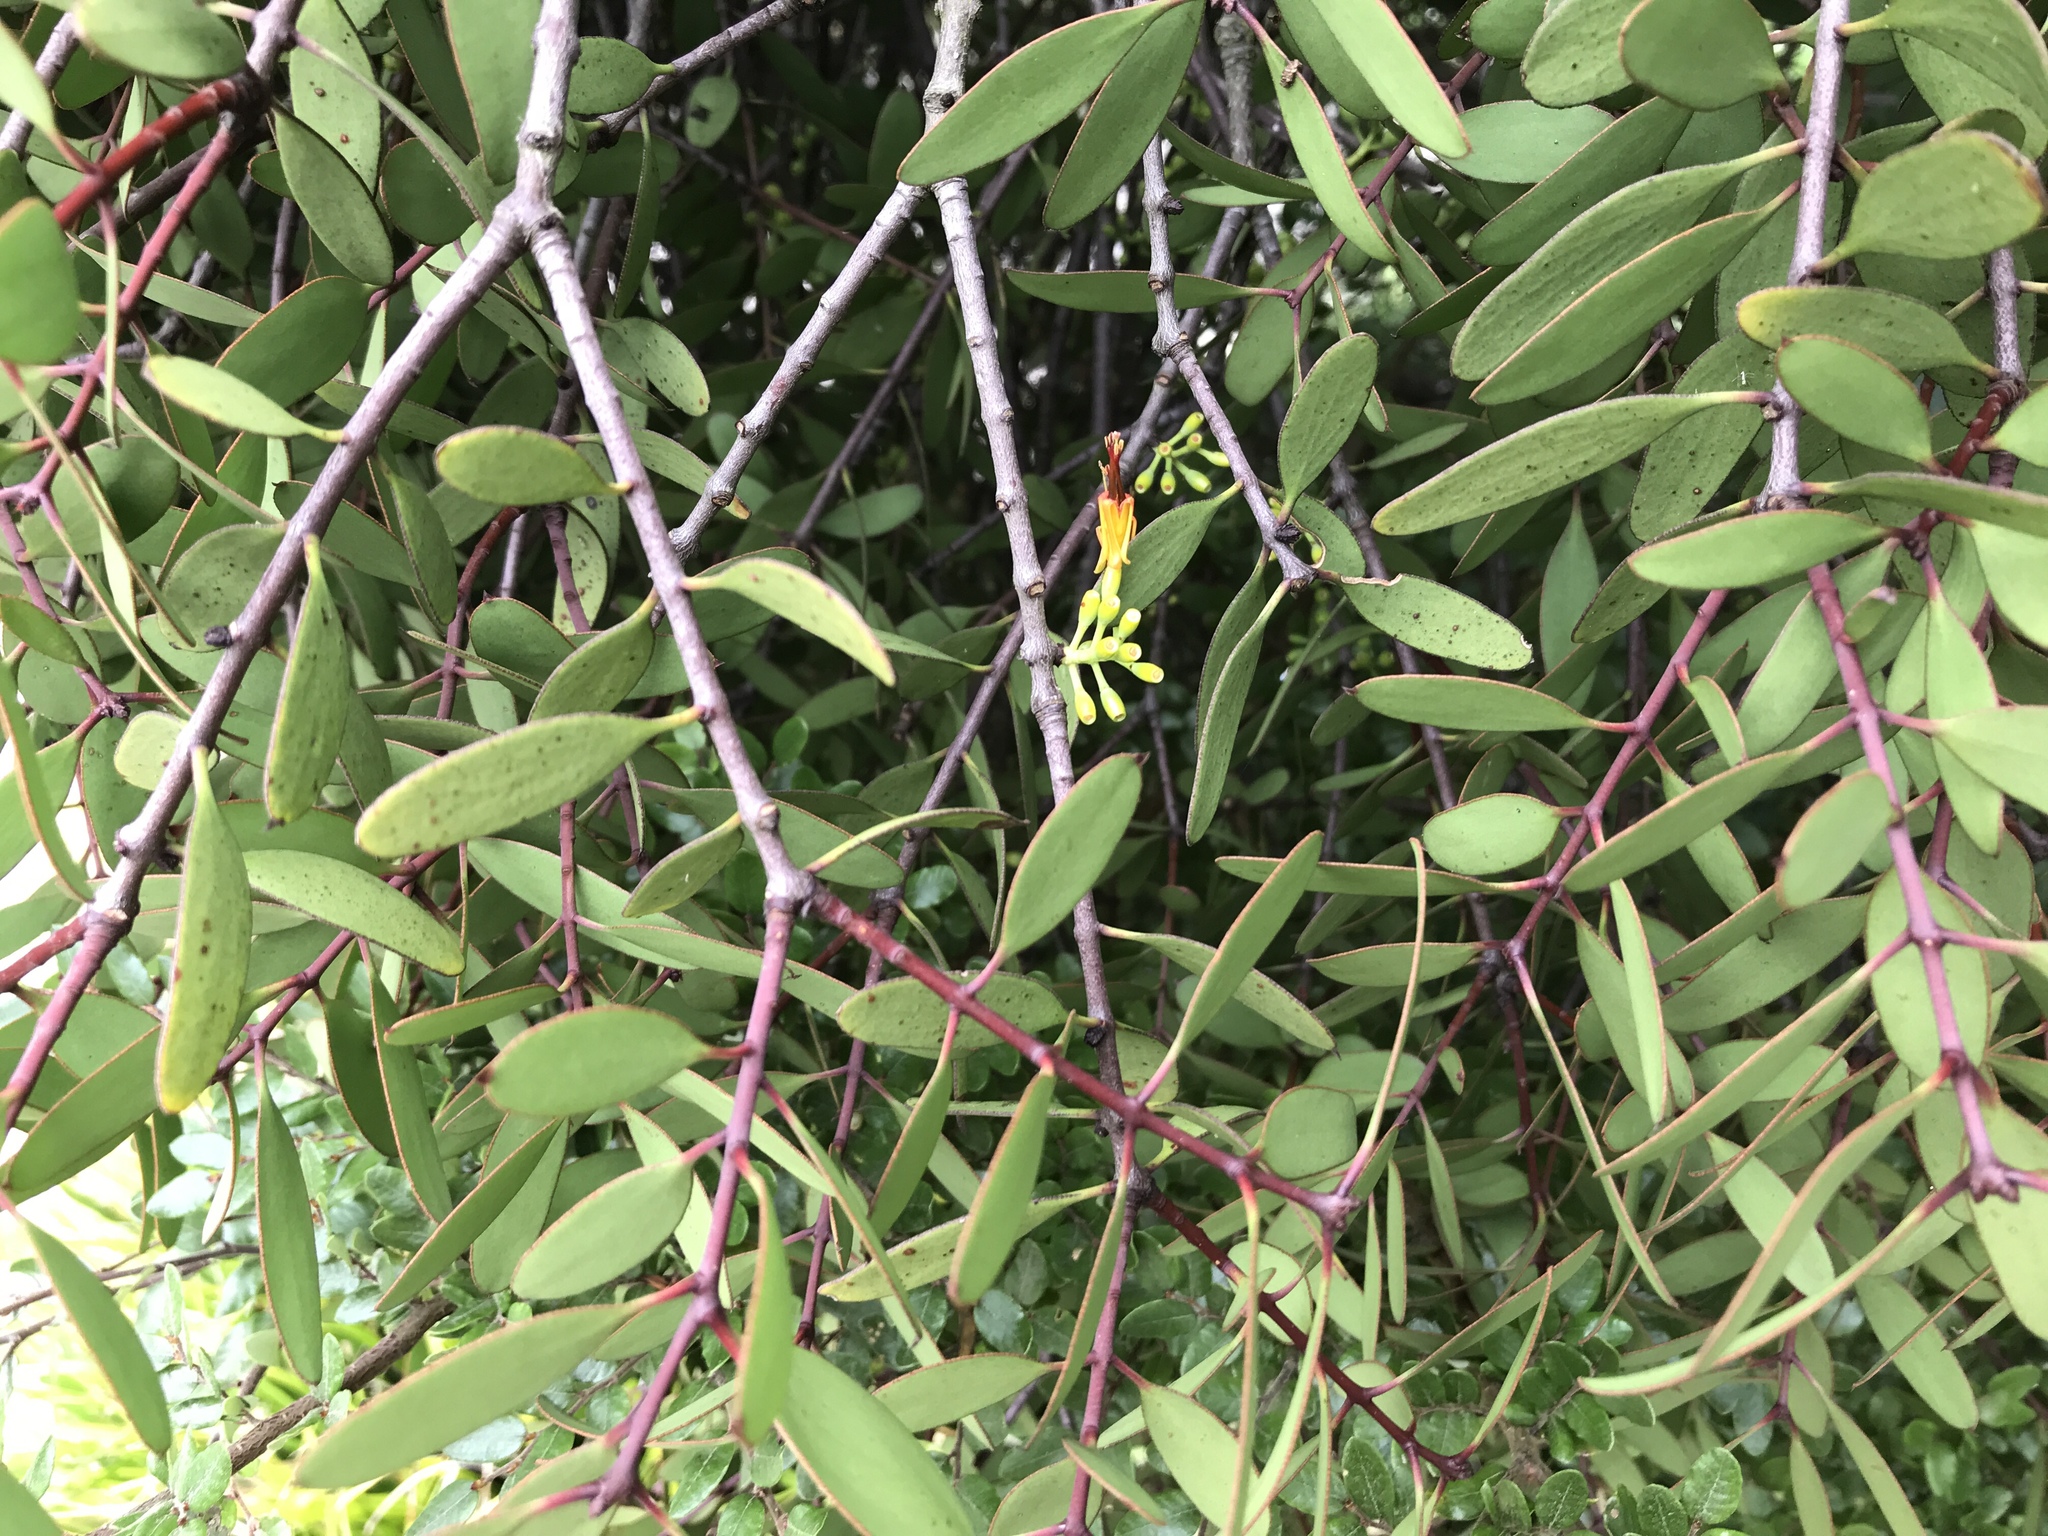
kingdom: Plantae
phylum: Tracheophyta
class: Magnoliopsida
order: Santalales
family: Loranthaceae
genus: Alepis
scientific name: Alepis flavida
